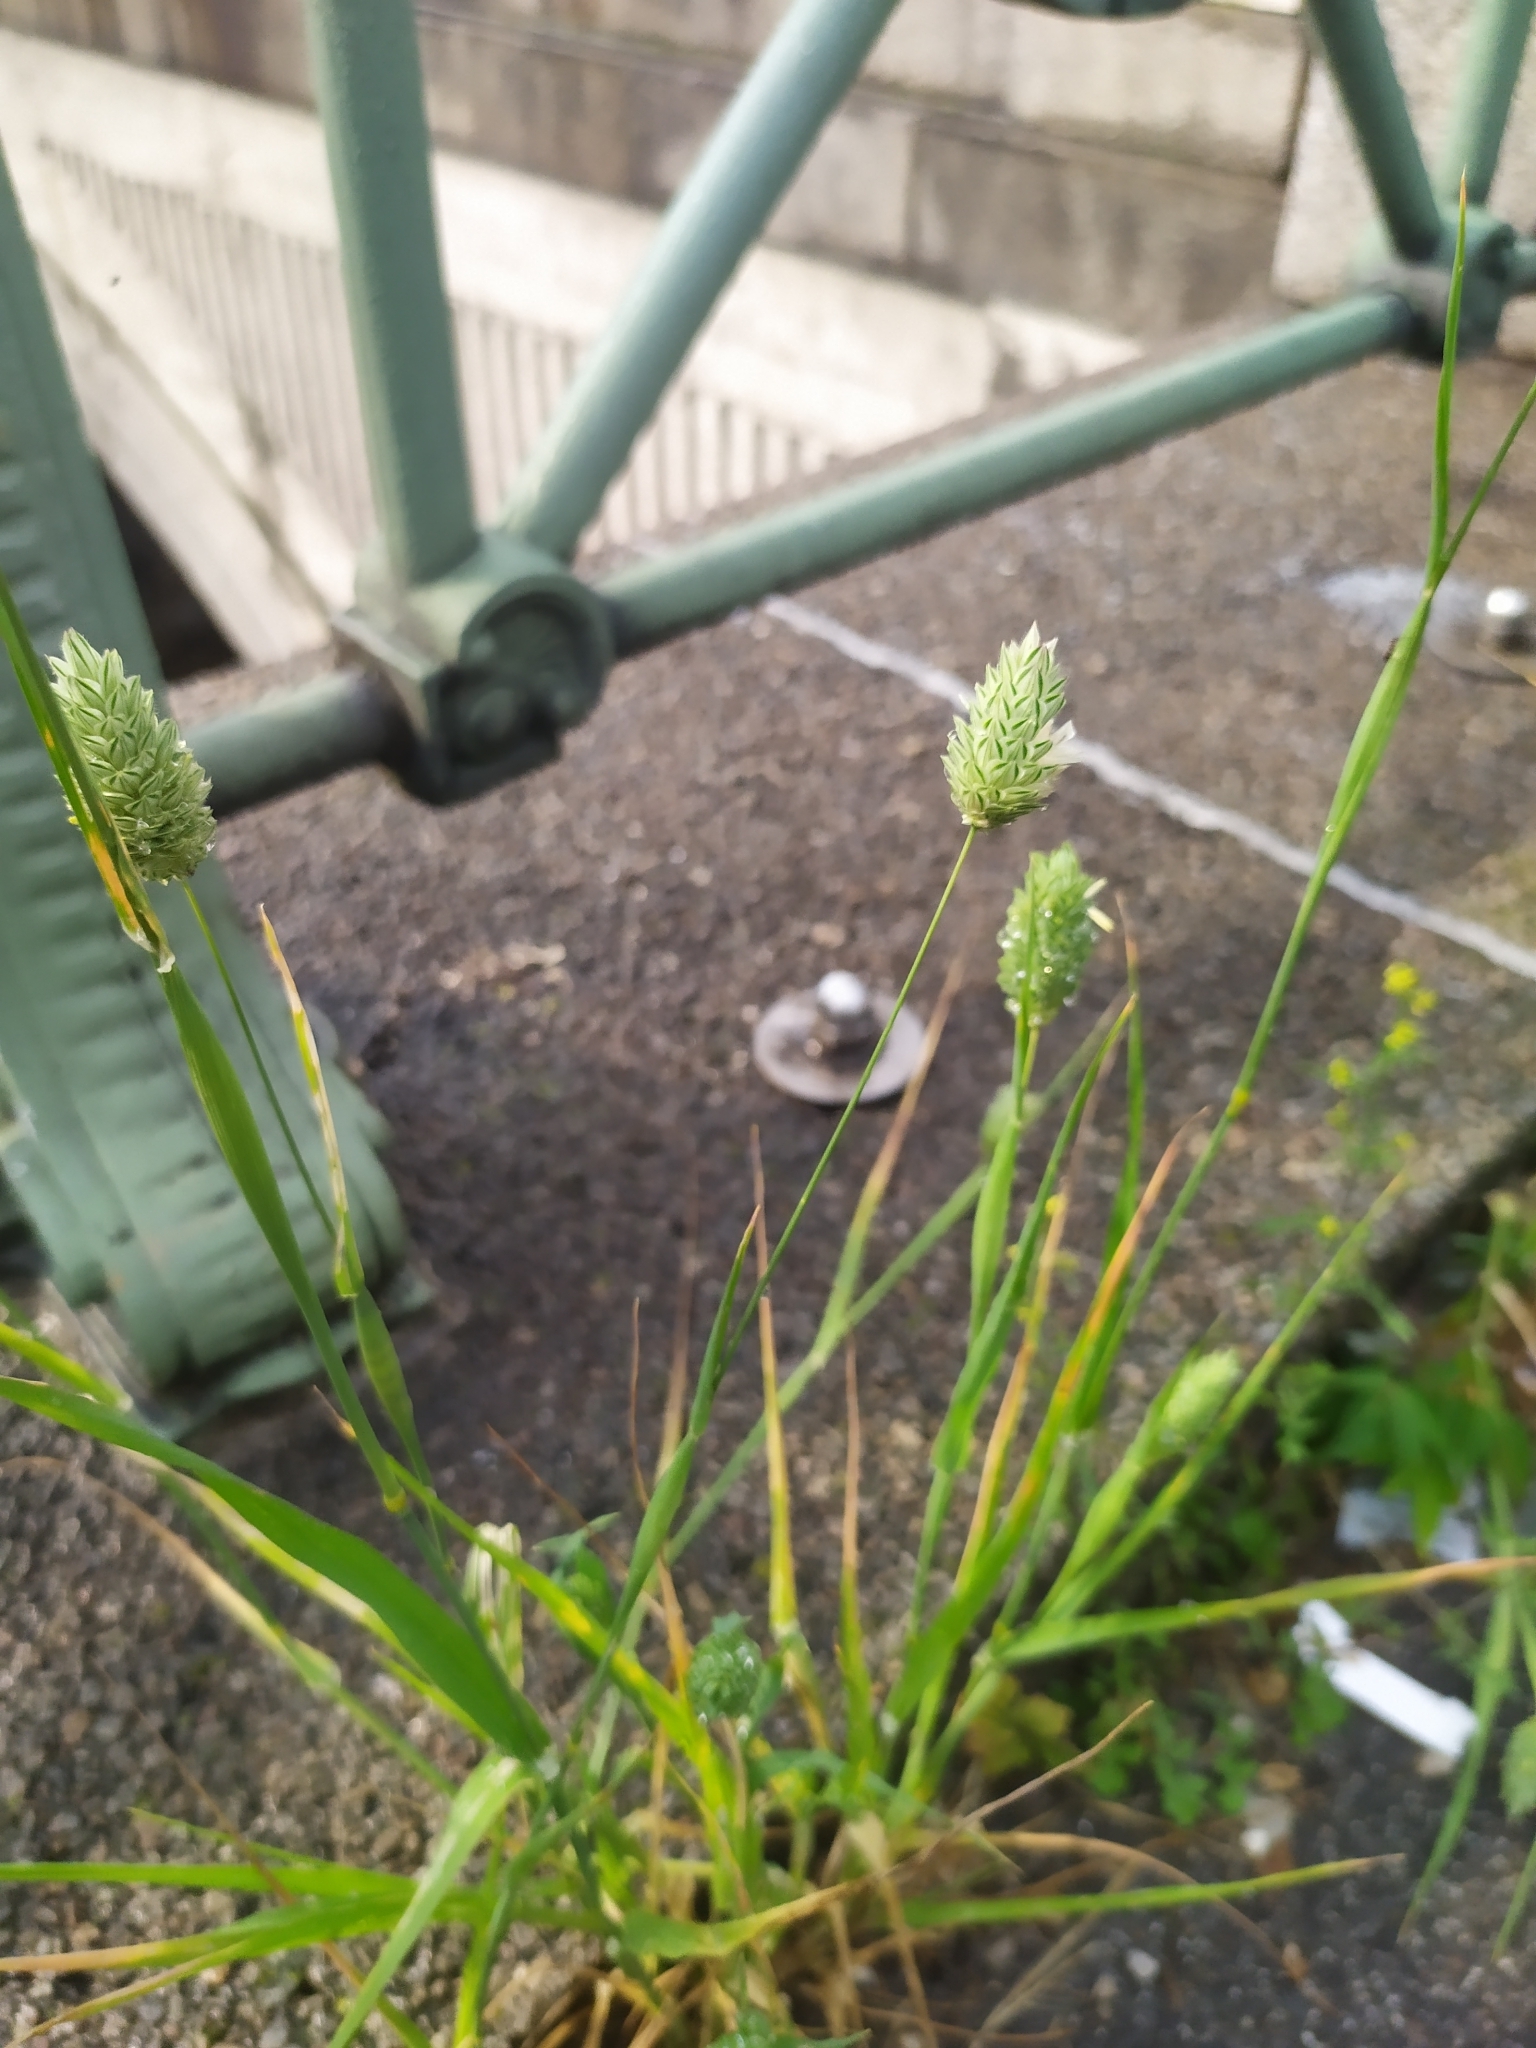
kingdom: Plantae
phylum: Tracheophyta
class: Liliopsida
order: Poales
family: Poaceae
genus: Phalaris
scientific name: Phalaris canariensis
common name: Annual canarygrass
